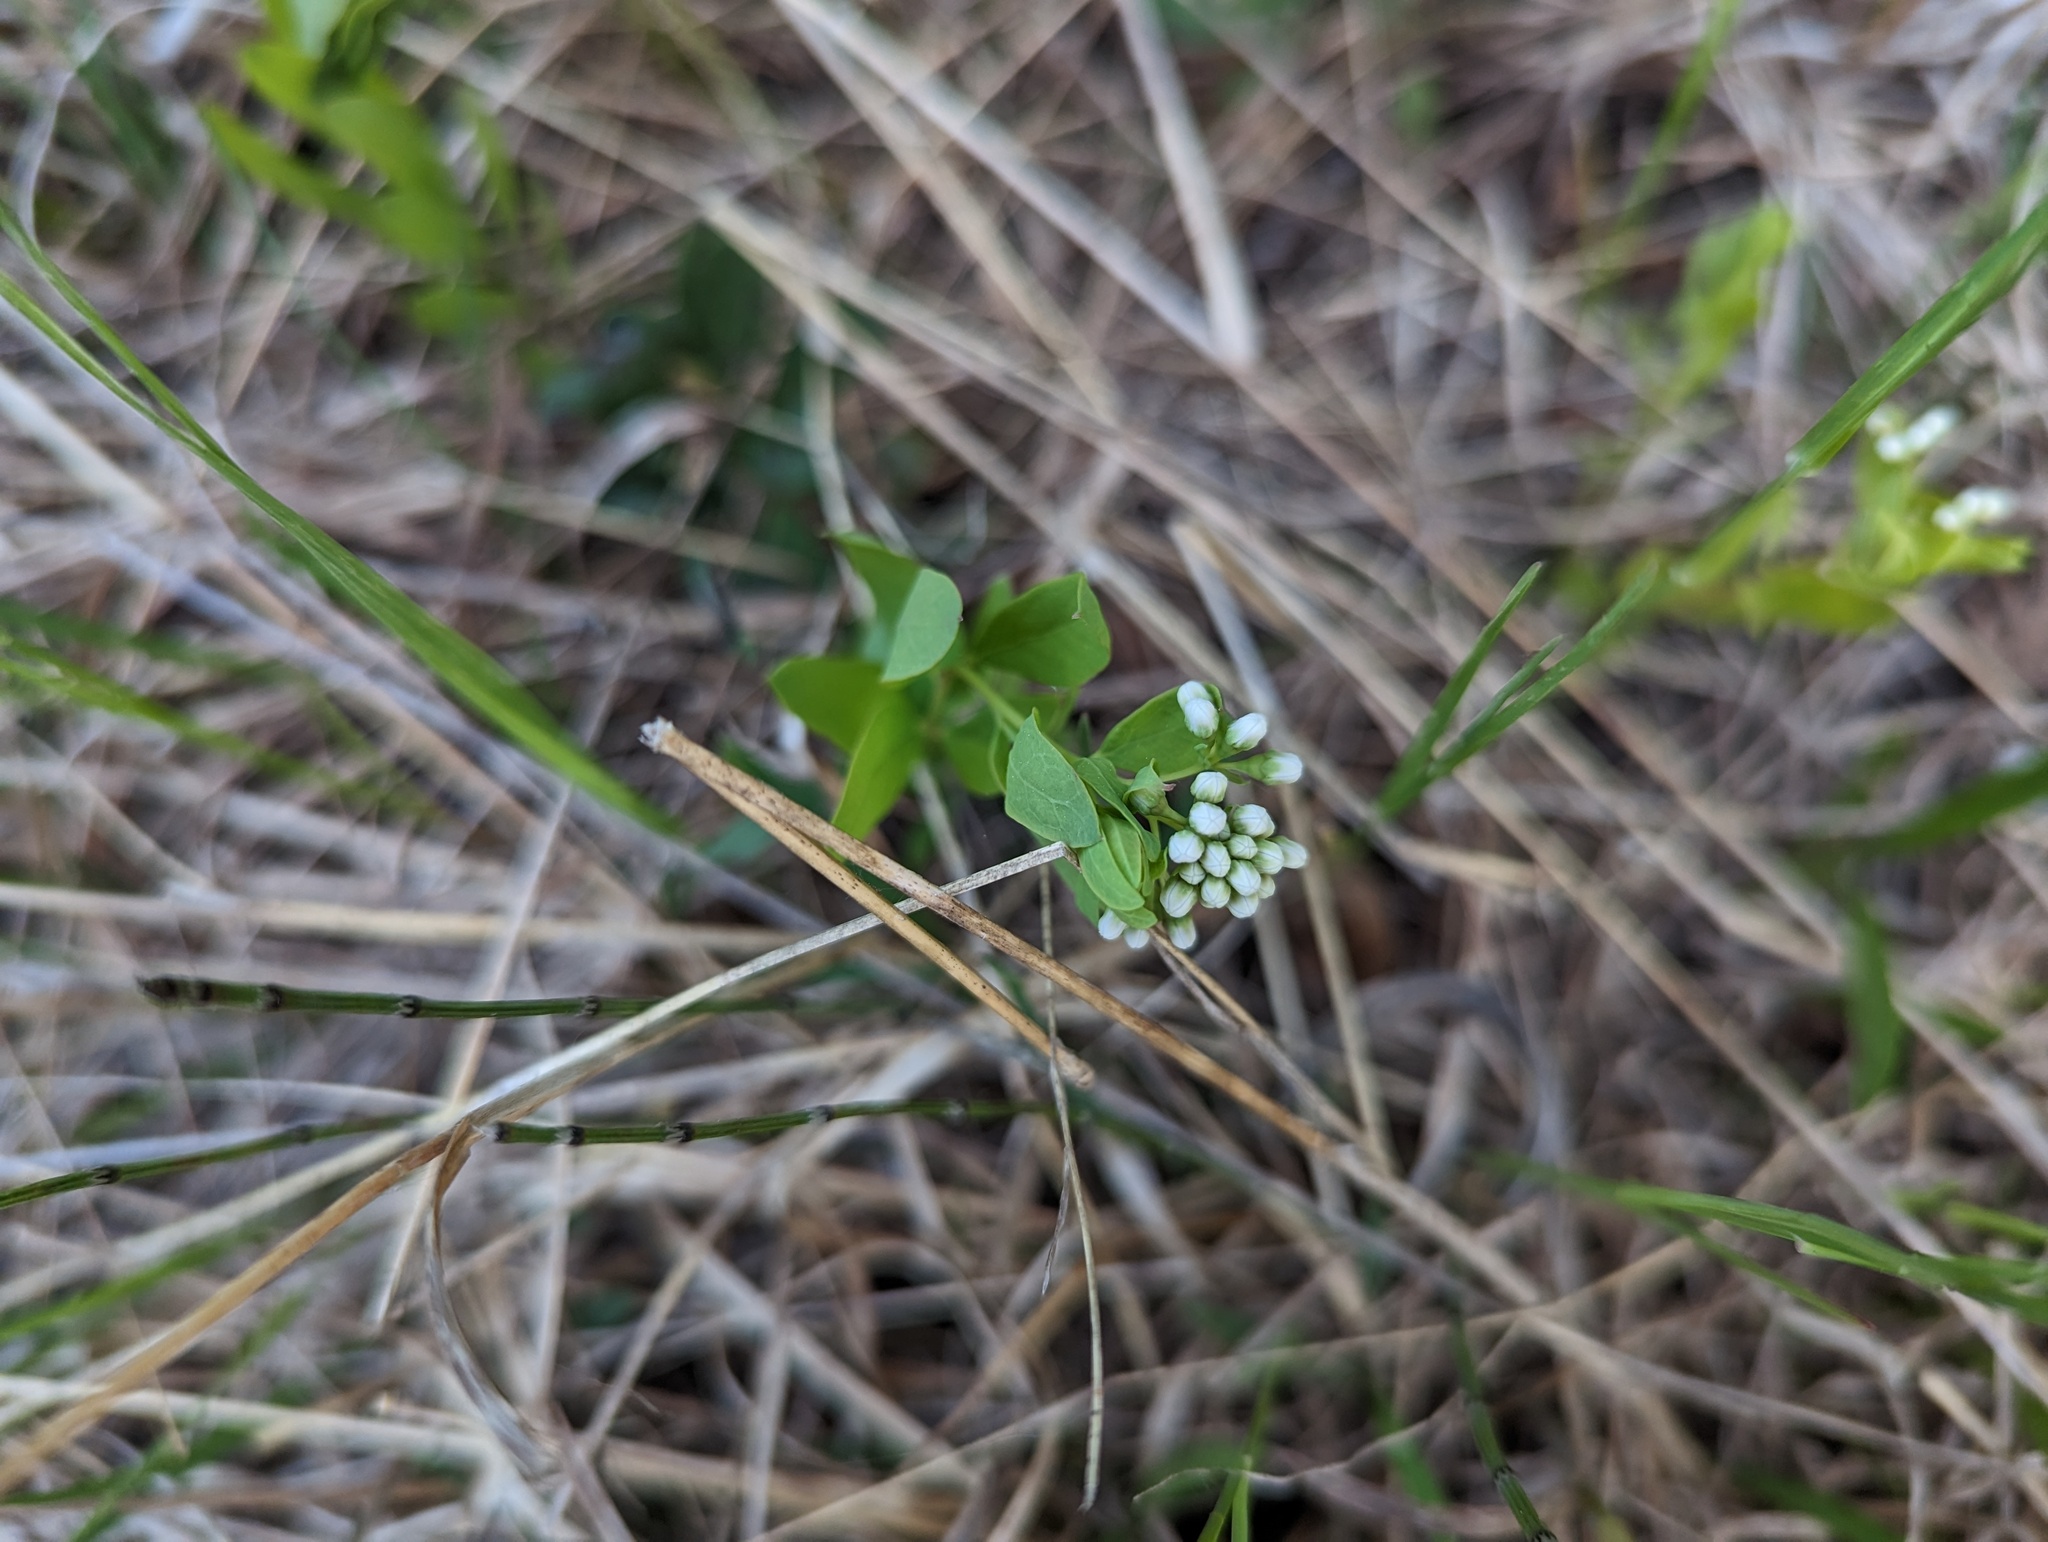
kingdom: Plantae
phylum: Tracheophyta
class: Magnoliopsida
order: Santalales
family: Comandraceae
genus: Comandra
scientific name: Comandra umbellata
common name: Bastard toadflax
